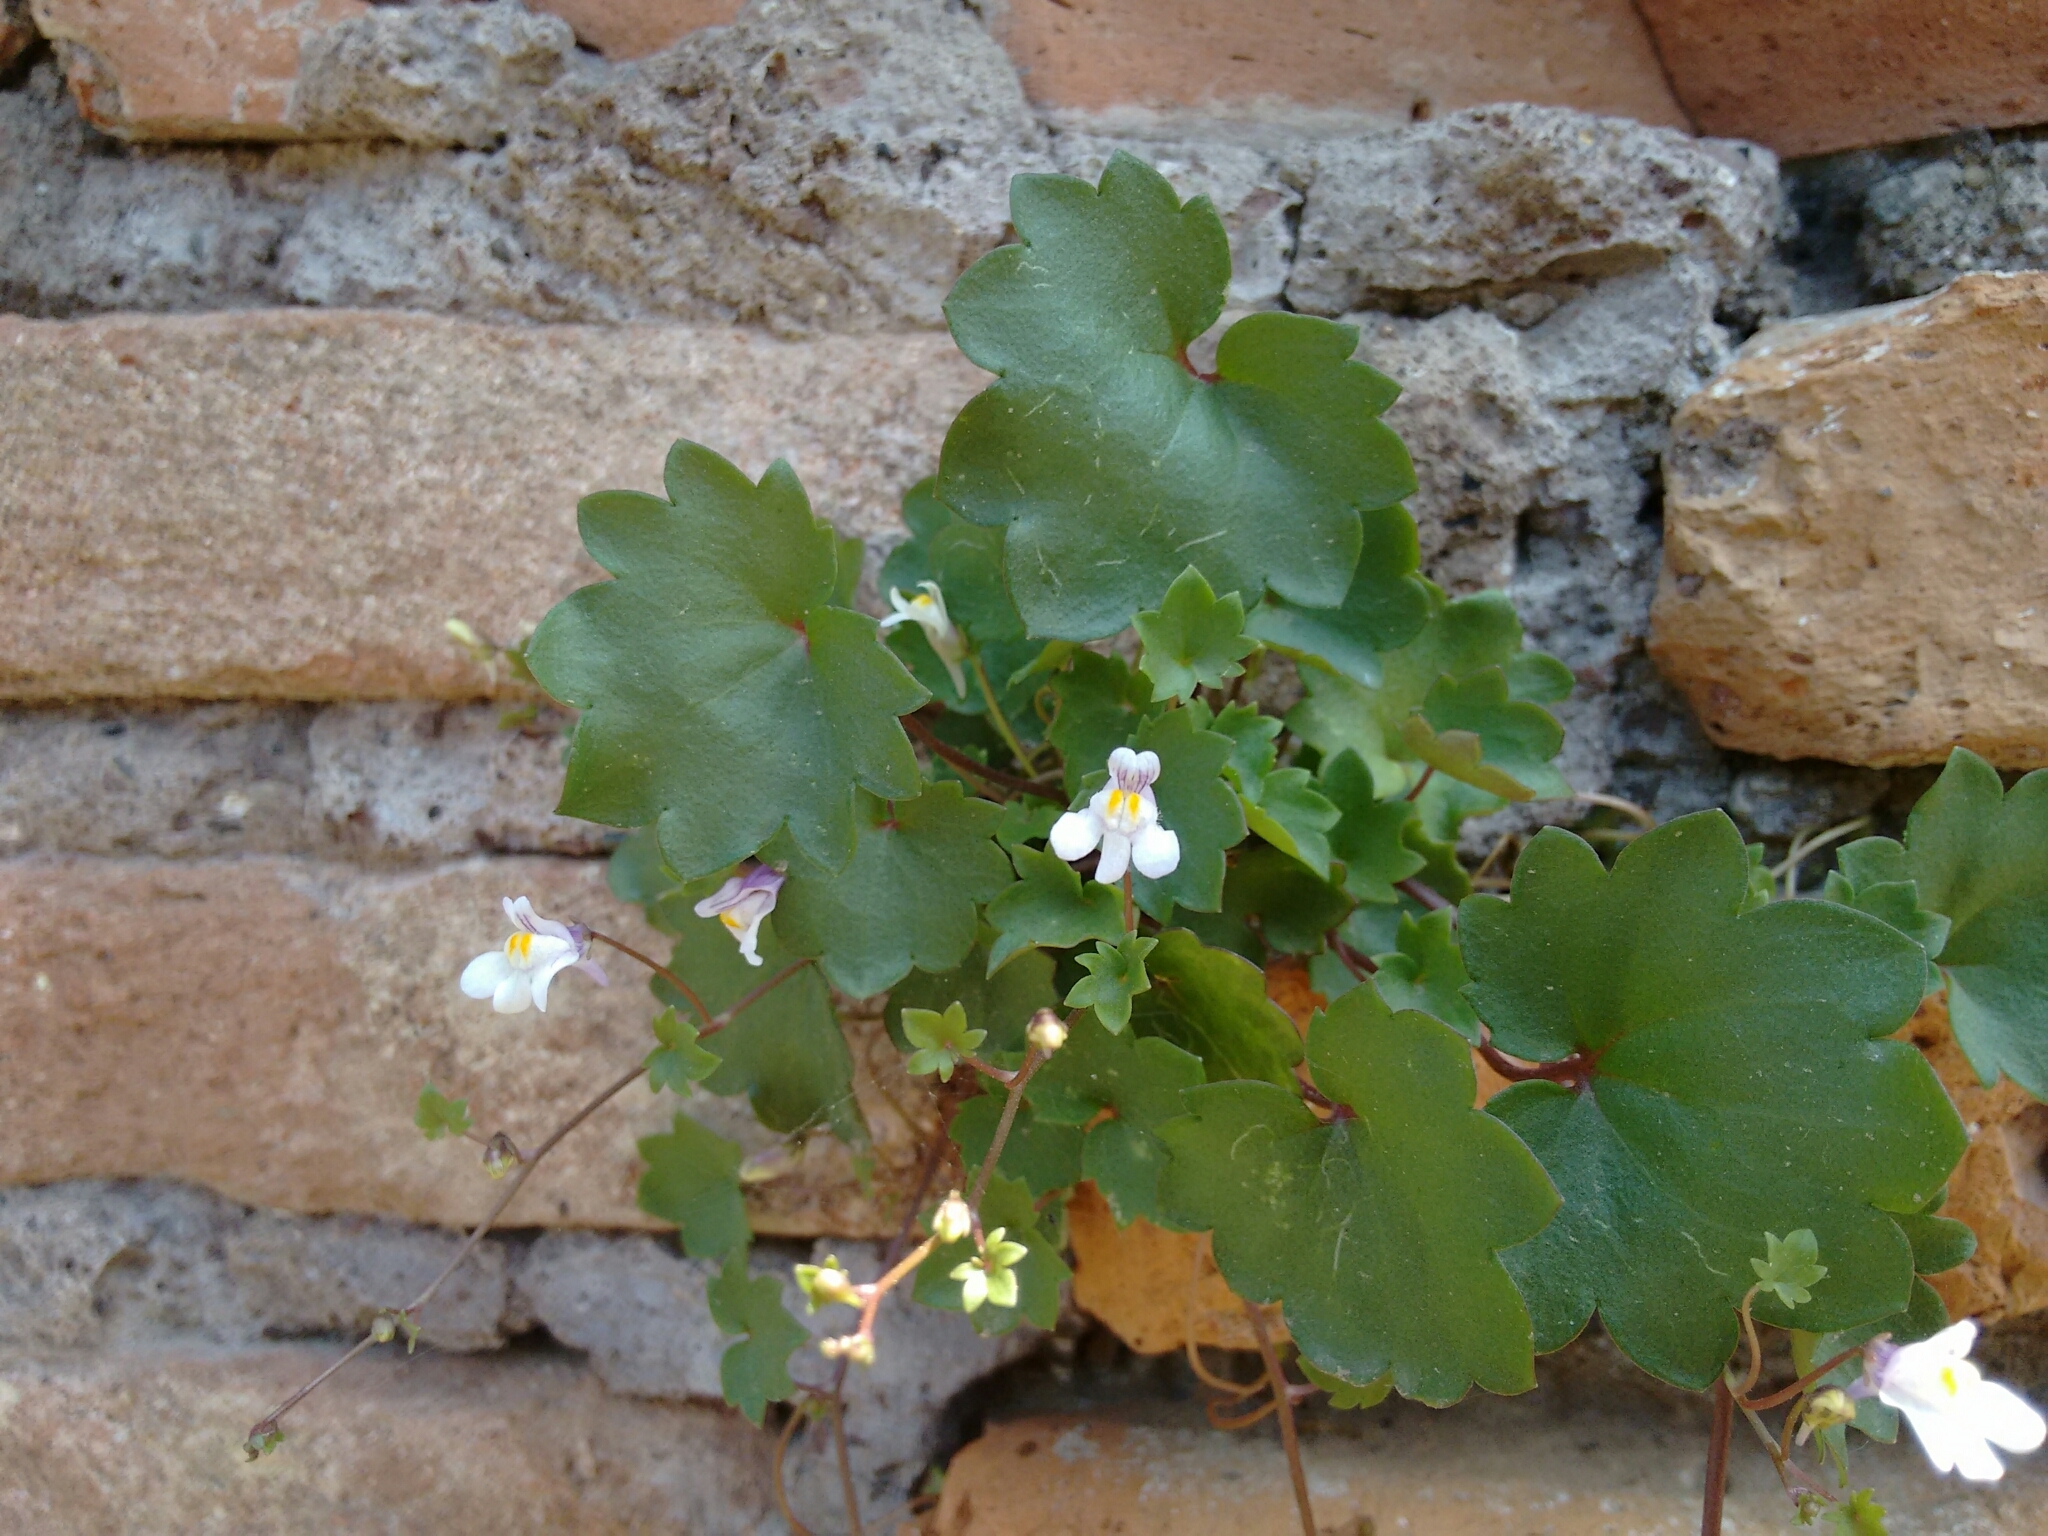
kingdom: Plantae
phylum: Tracheophyta
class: Magnoliopsida
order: Lamiales
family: Plantaginaceae
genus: Cymbalaria
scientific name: Cymbalaria muralis
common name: Ivy-leaved toadflax
